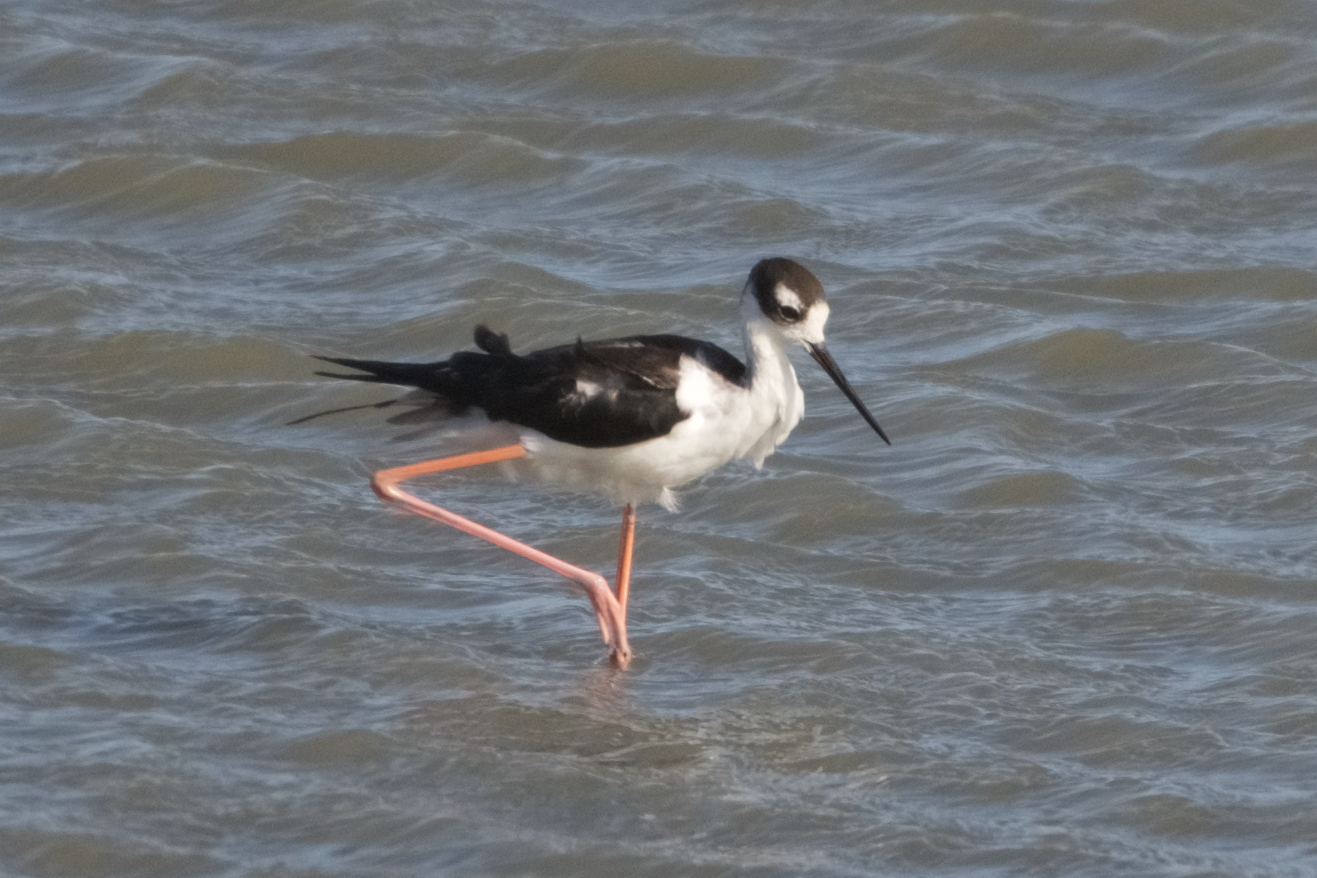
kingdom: Animalia
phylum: Chordata
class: Aves
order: Charadriiformes
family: Recurvirostridae
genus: Himantopus
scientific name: Himantopus mexicanus
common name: Black-necked stilt
